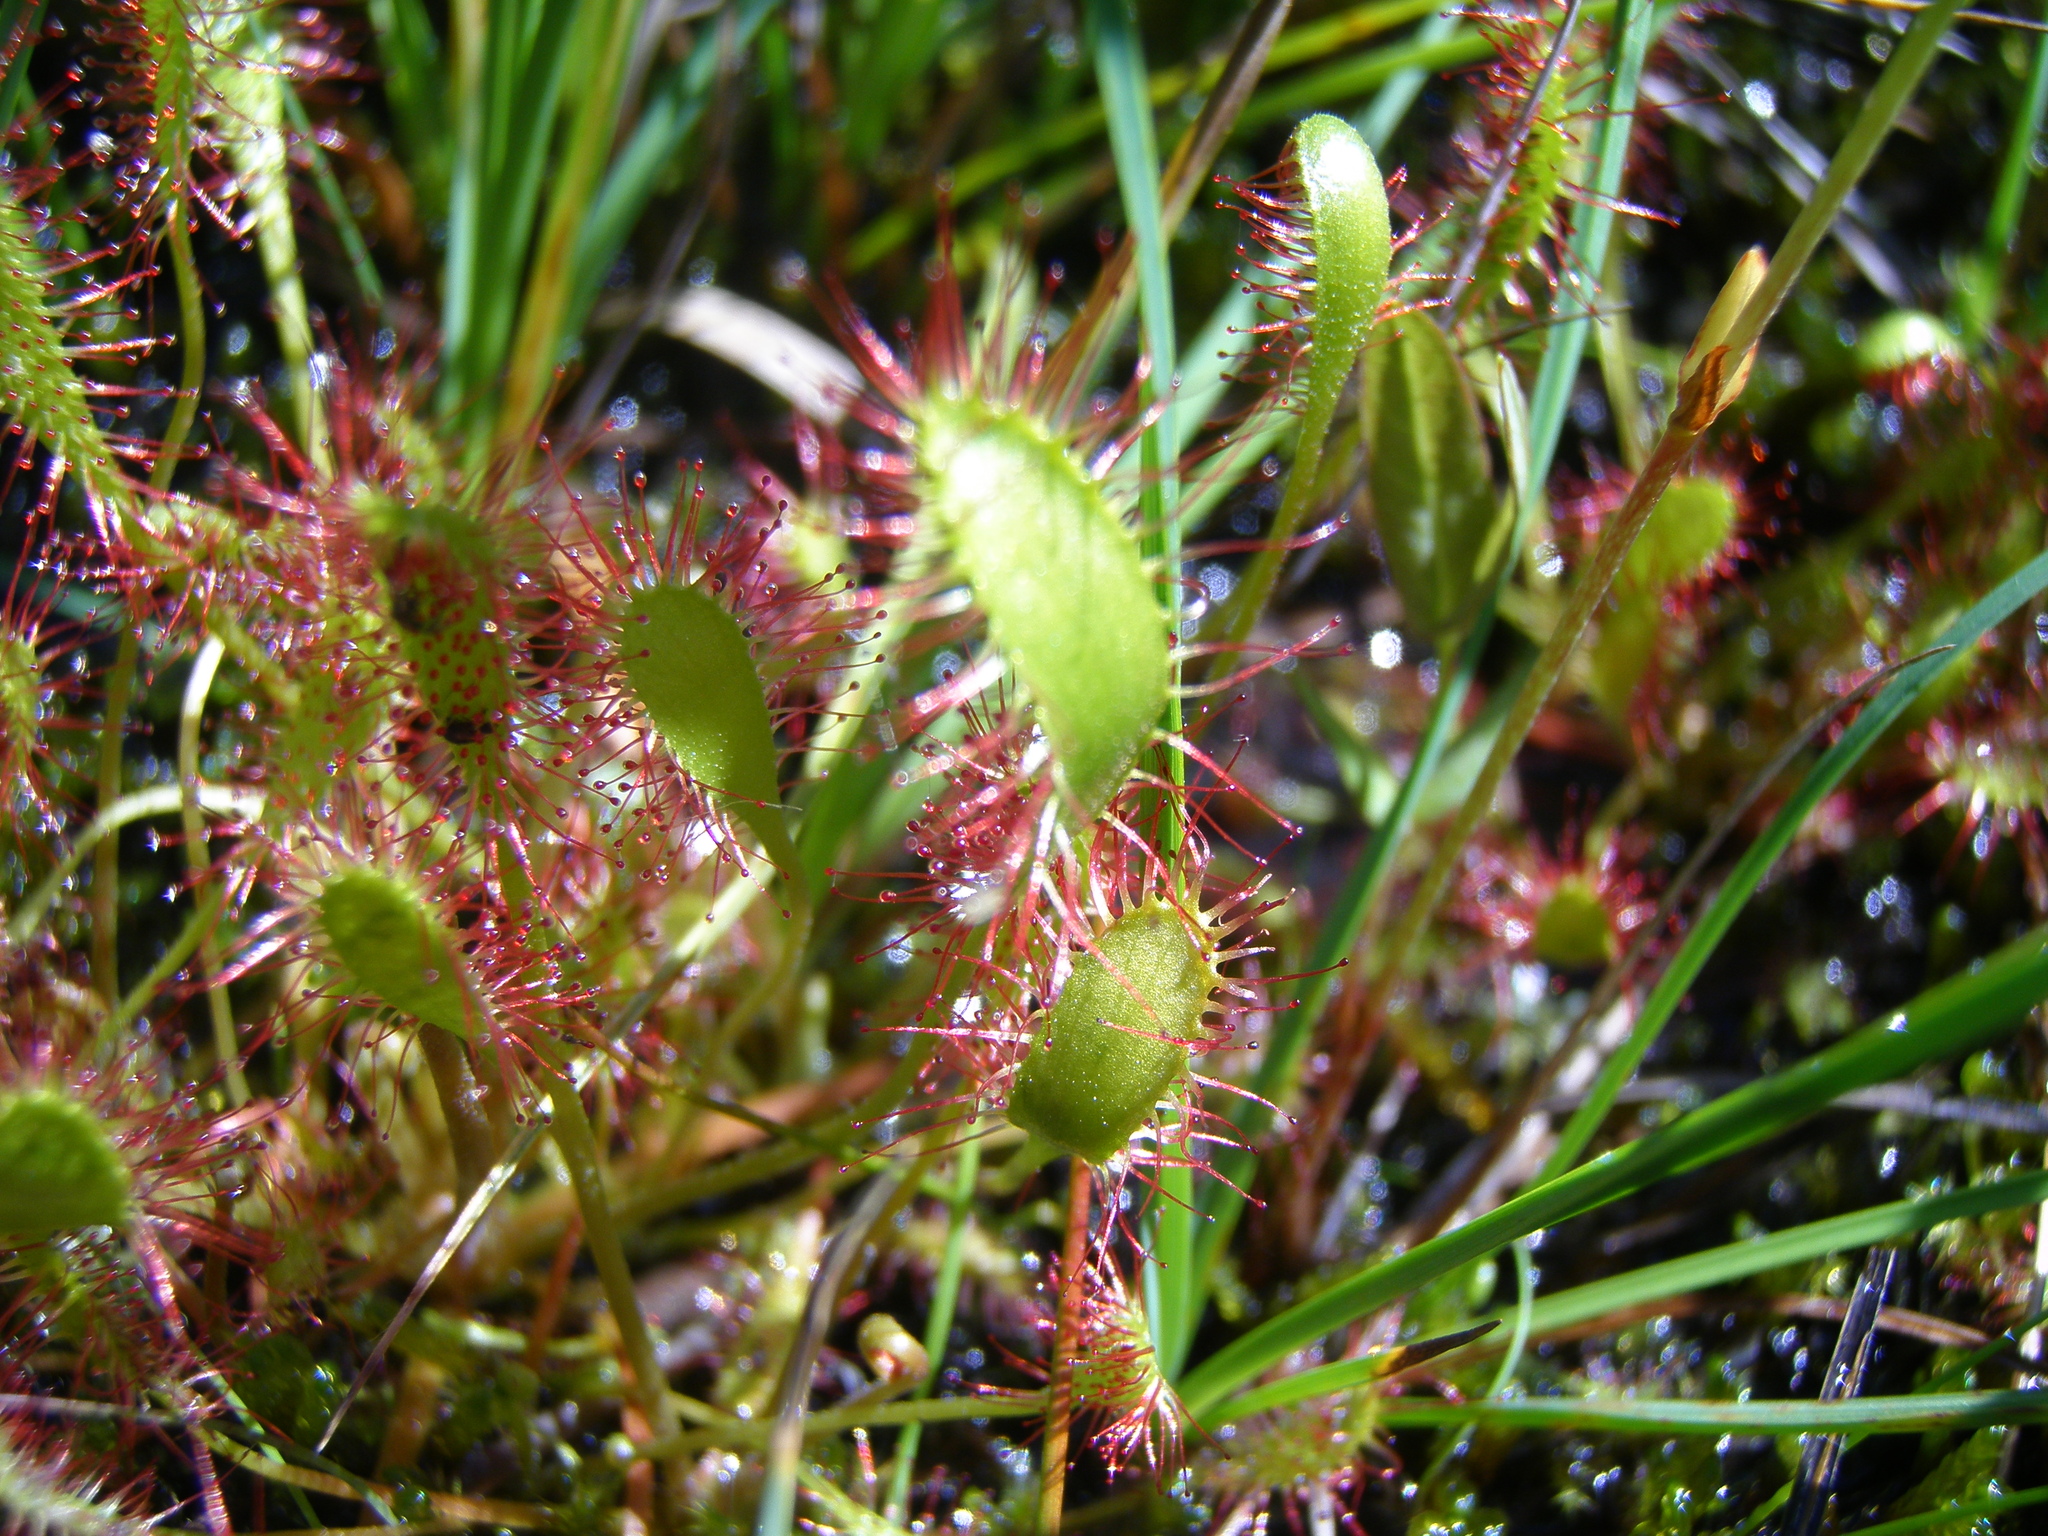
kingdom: Plantae
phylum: Tracheophyta
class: Magnoliopsida
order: Caryophyllales
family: Droseraceae
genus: Drosera
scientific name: Drosera anglica
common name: Great sundew
